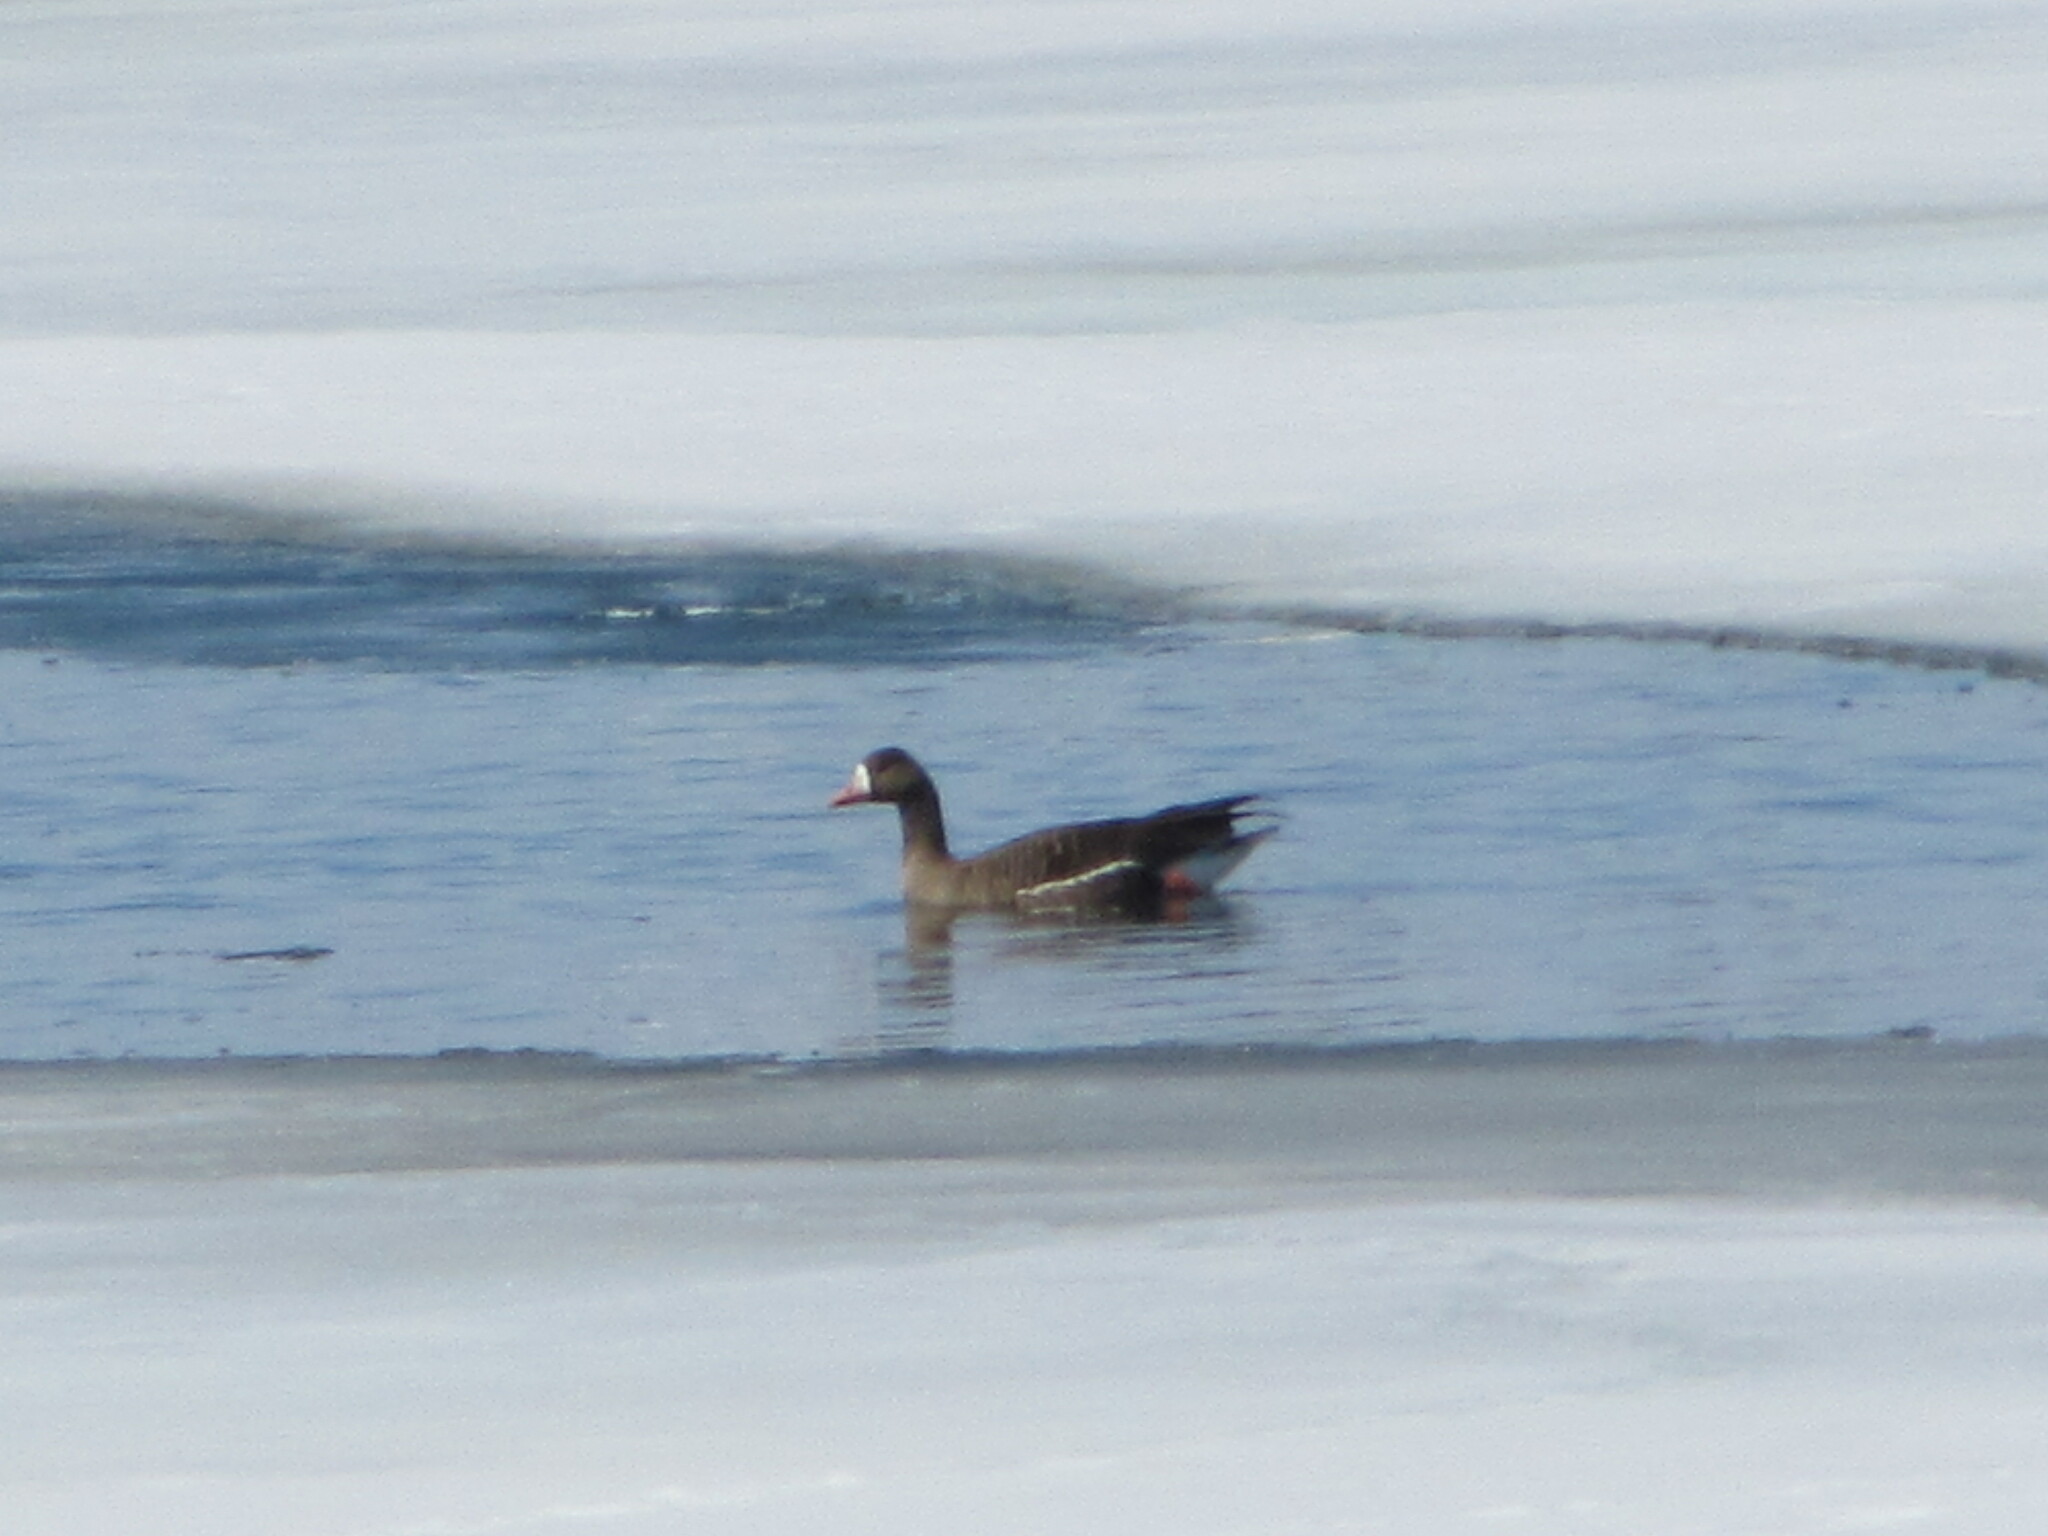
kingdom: Animalia
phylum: Chordata
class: Aves
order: Anseriformes
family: Anatidae
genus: Anser
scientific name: Anser albifrons
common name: Greater white-fronted goose
